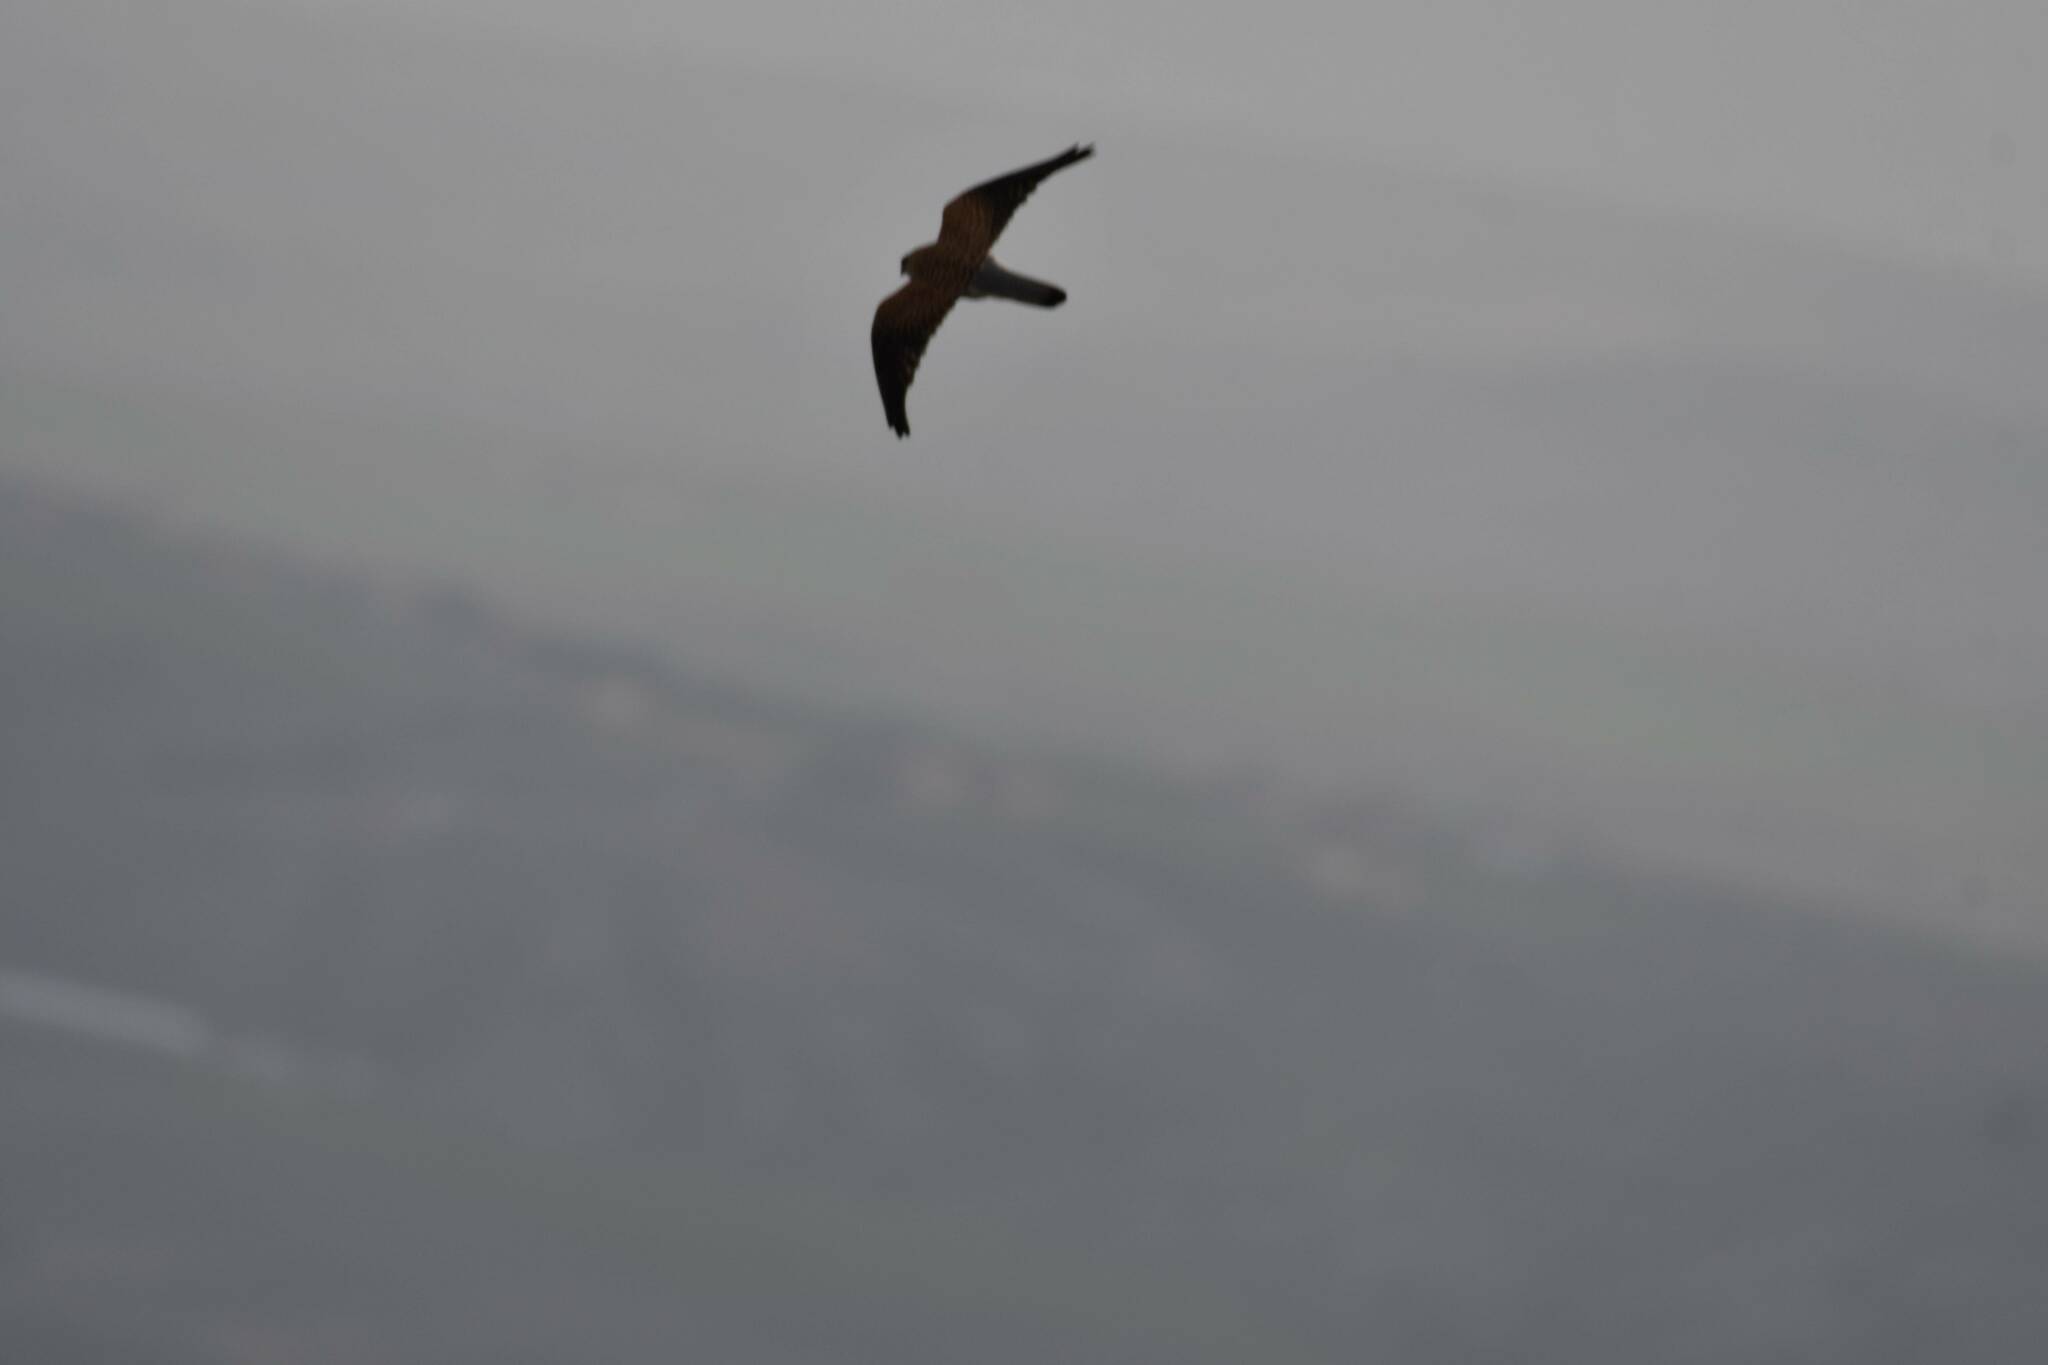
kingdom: Animalia
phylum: Chordata
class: Aves
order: Falconiformes
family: Falconidae
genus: Falco
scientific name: Falco tinnunculus
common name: Common kestrel
